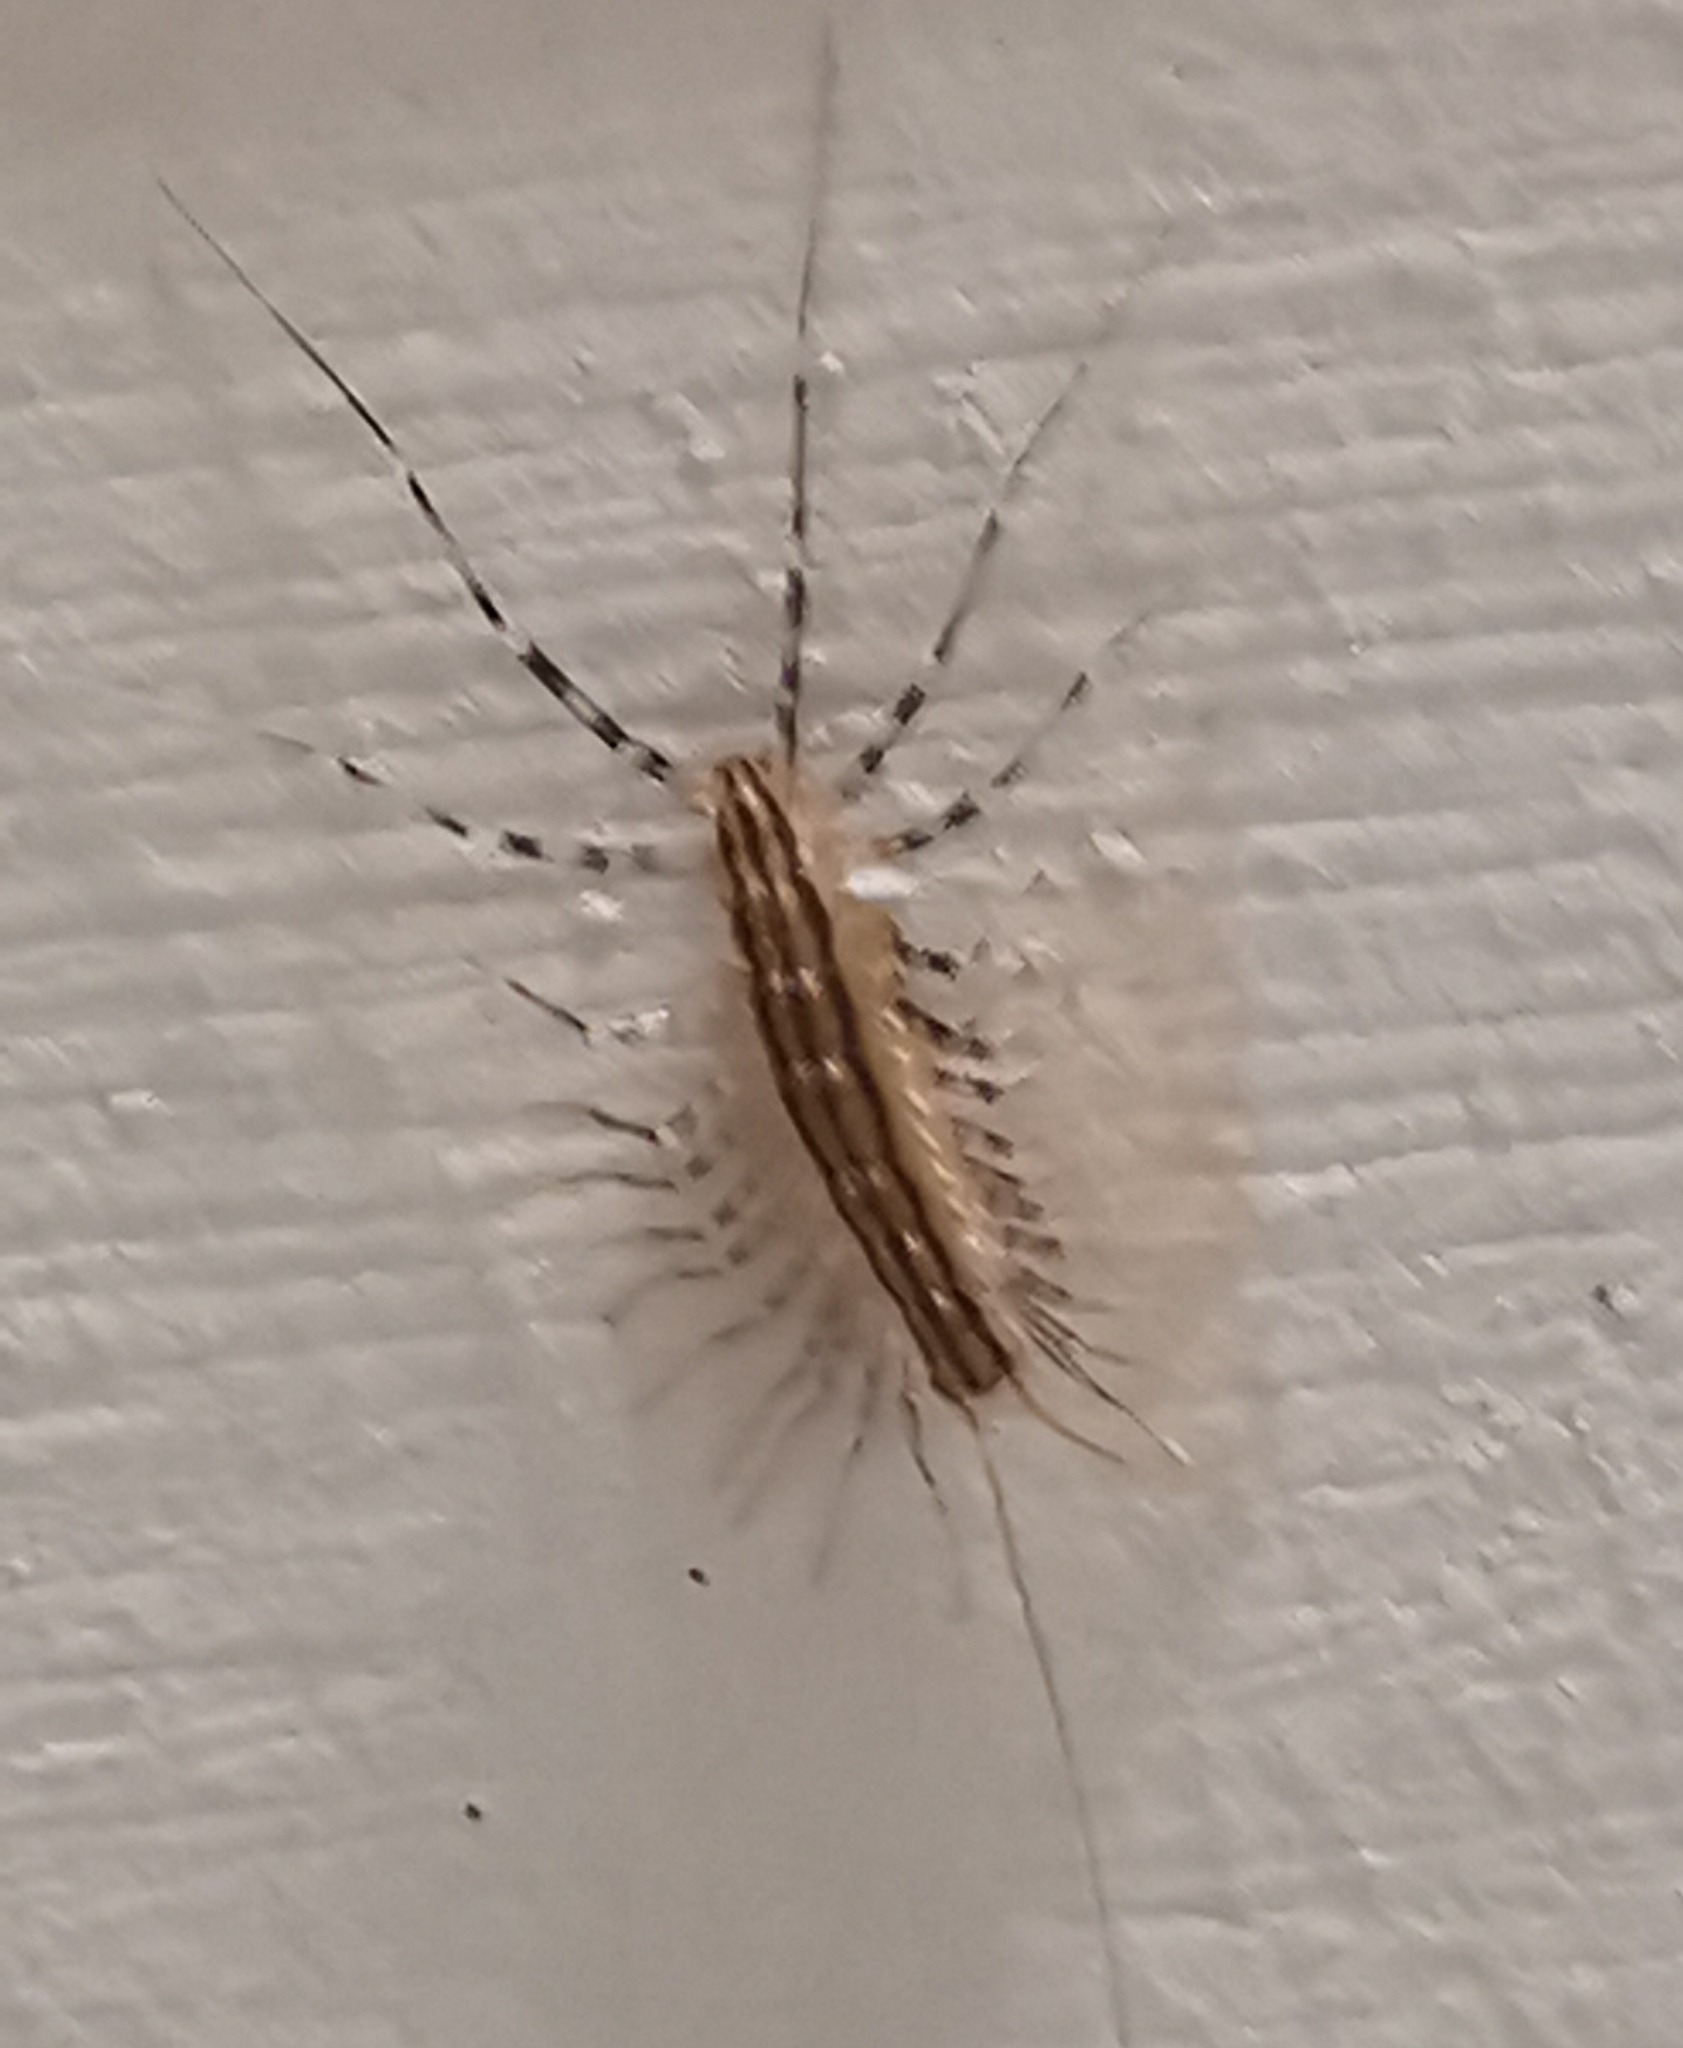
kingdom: Animalia
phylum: Arthropoda
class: Chilopoda
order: Scutigeromorpha
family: Scutigeridae
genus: Scutigera
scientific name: Scutigera coleoptrata
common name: House centipede
